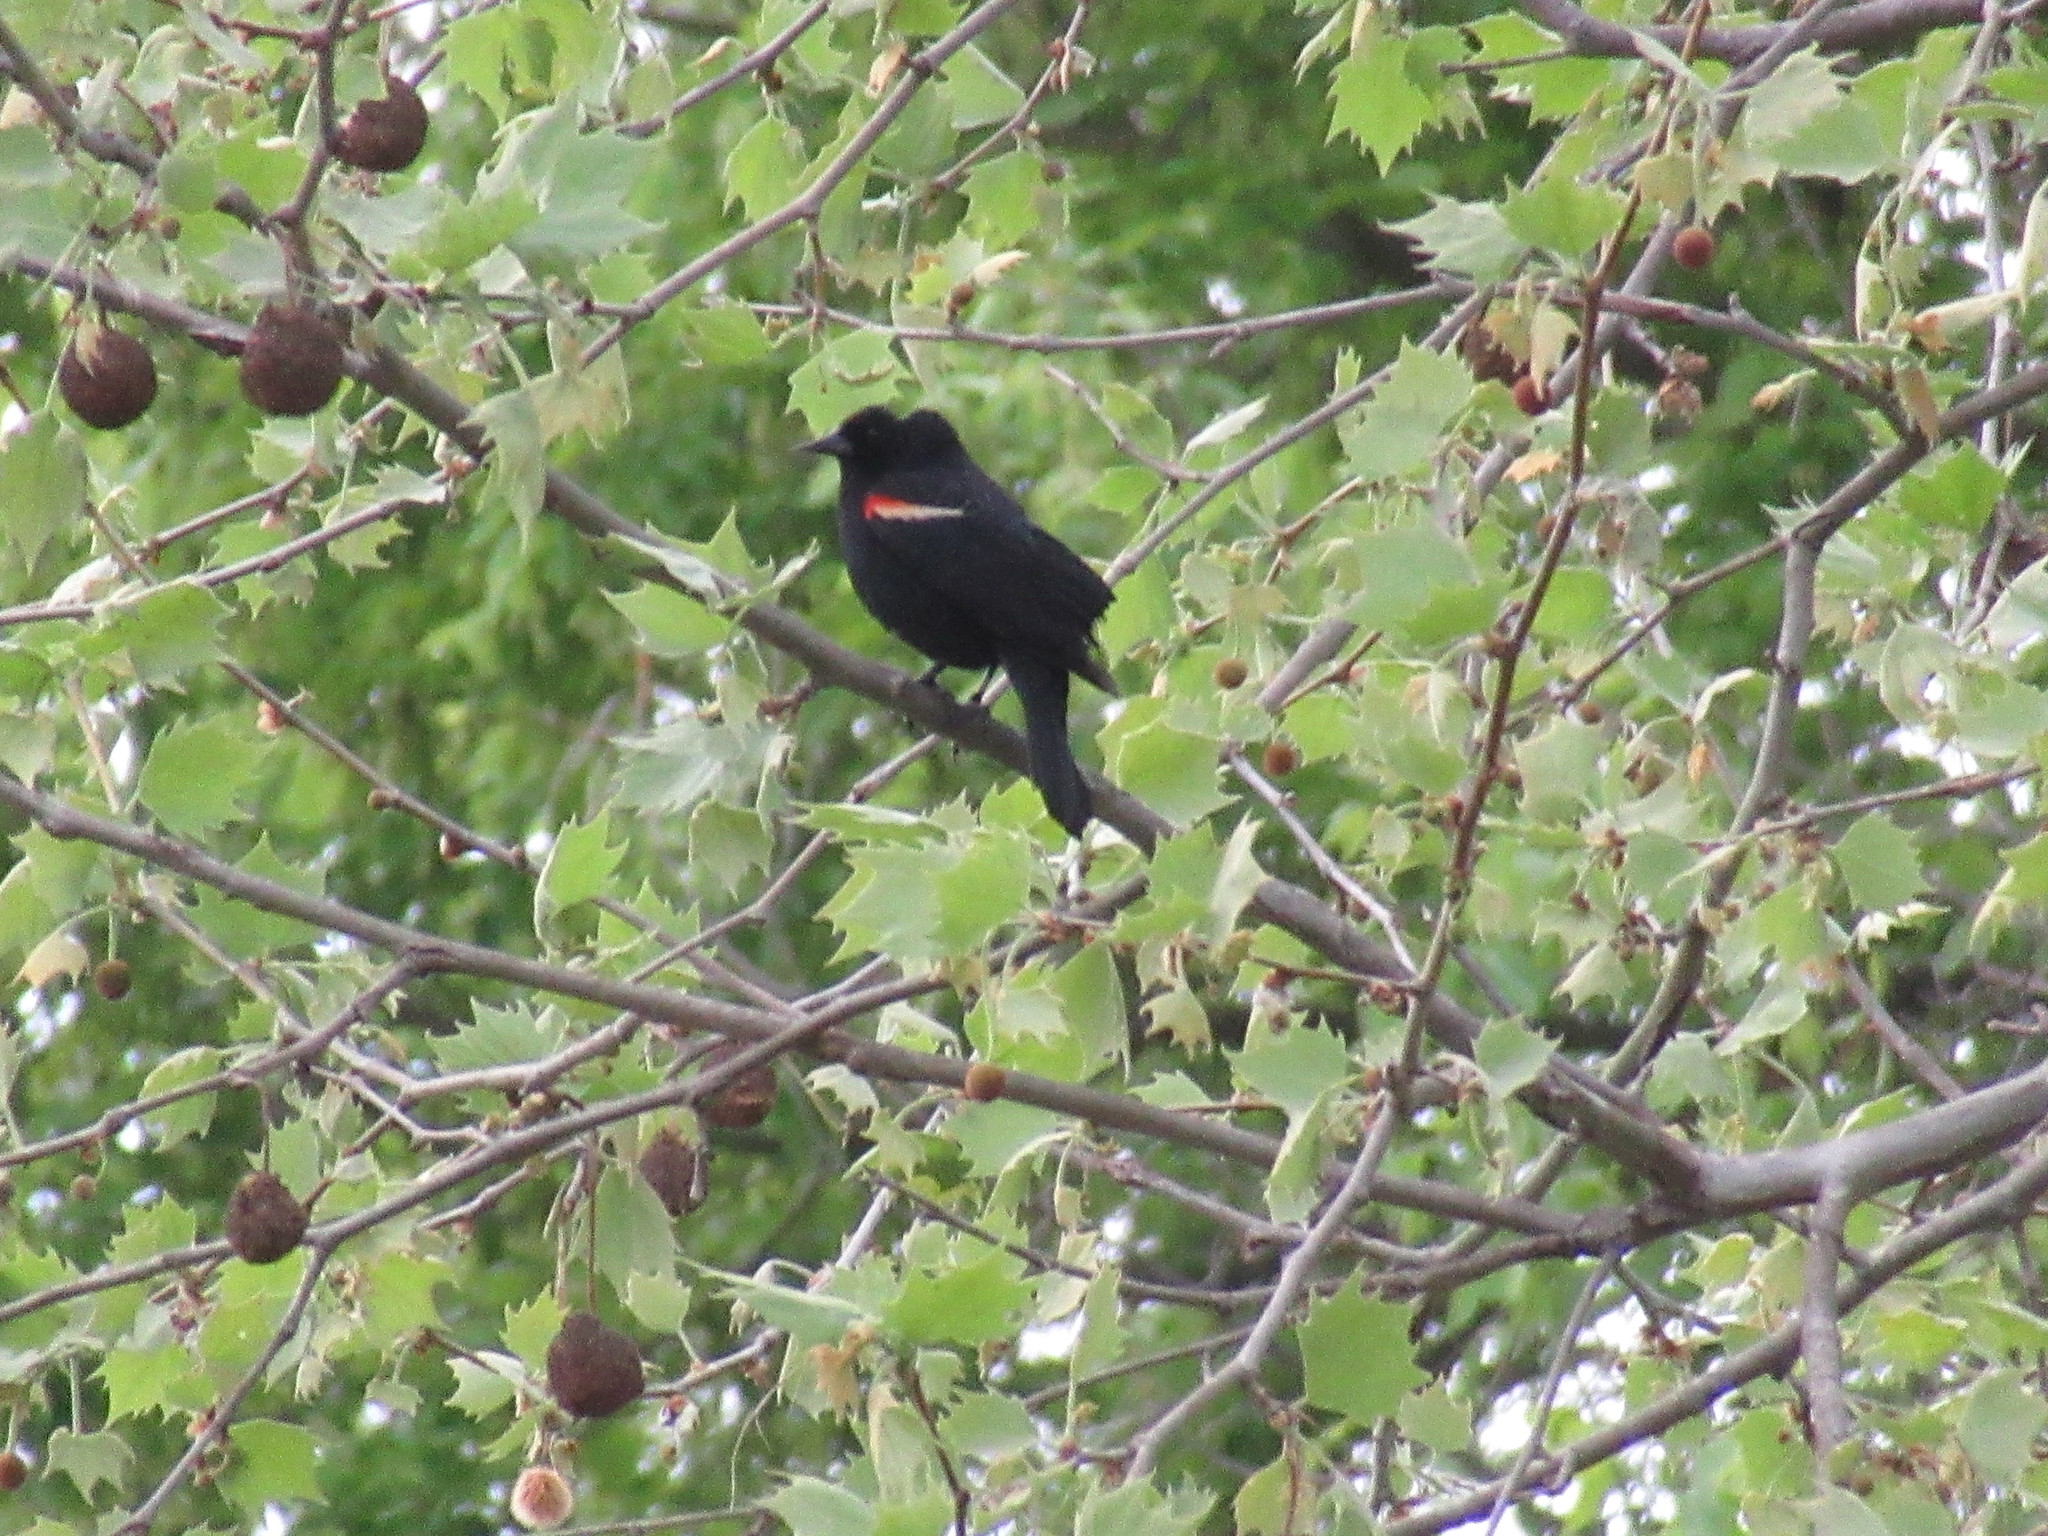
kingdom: Animalia
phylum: Chordata
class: Aves
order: Passeriformes
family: Icteridae
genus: Agelaius
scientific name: Agelaius phoeniceus
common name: Red-winged blackbird
